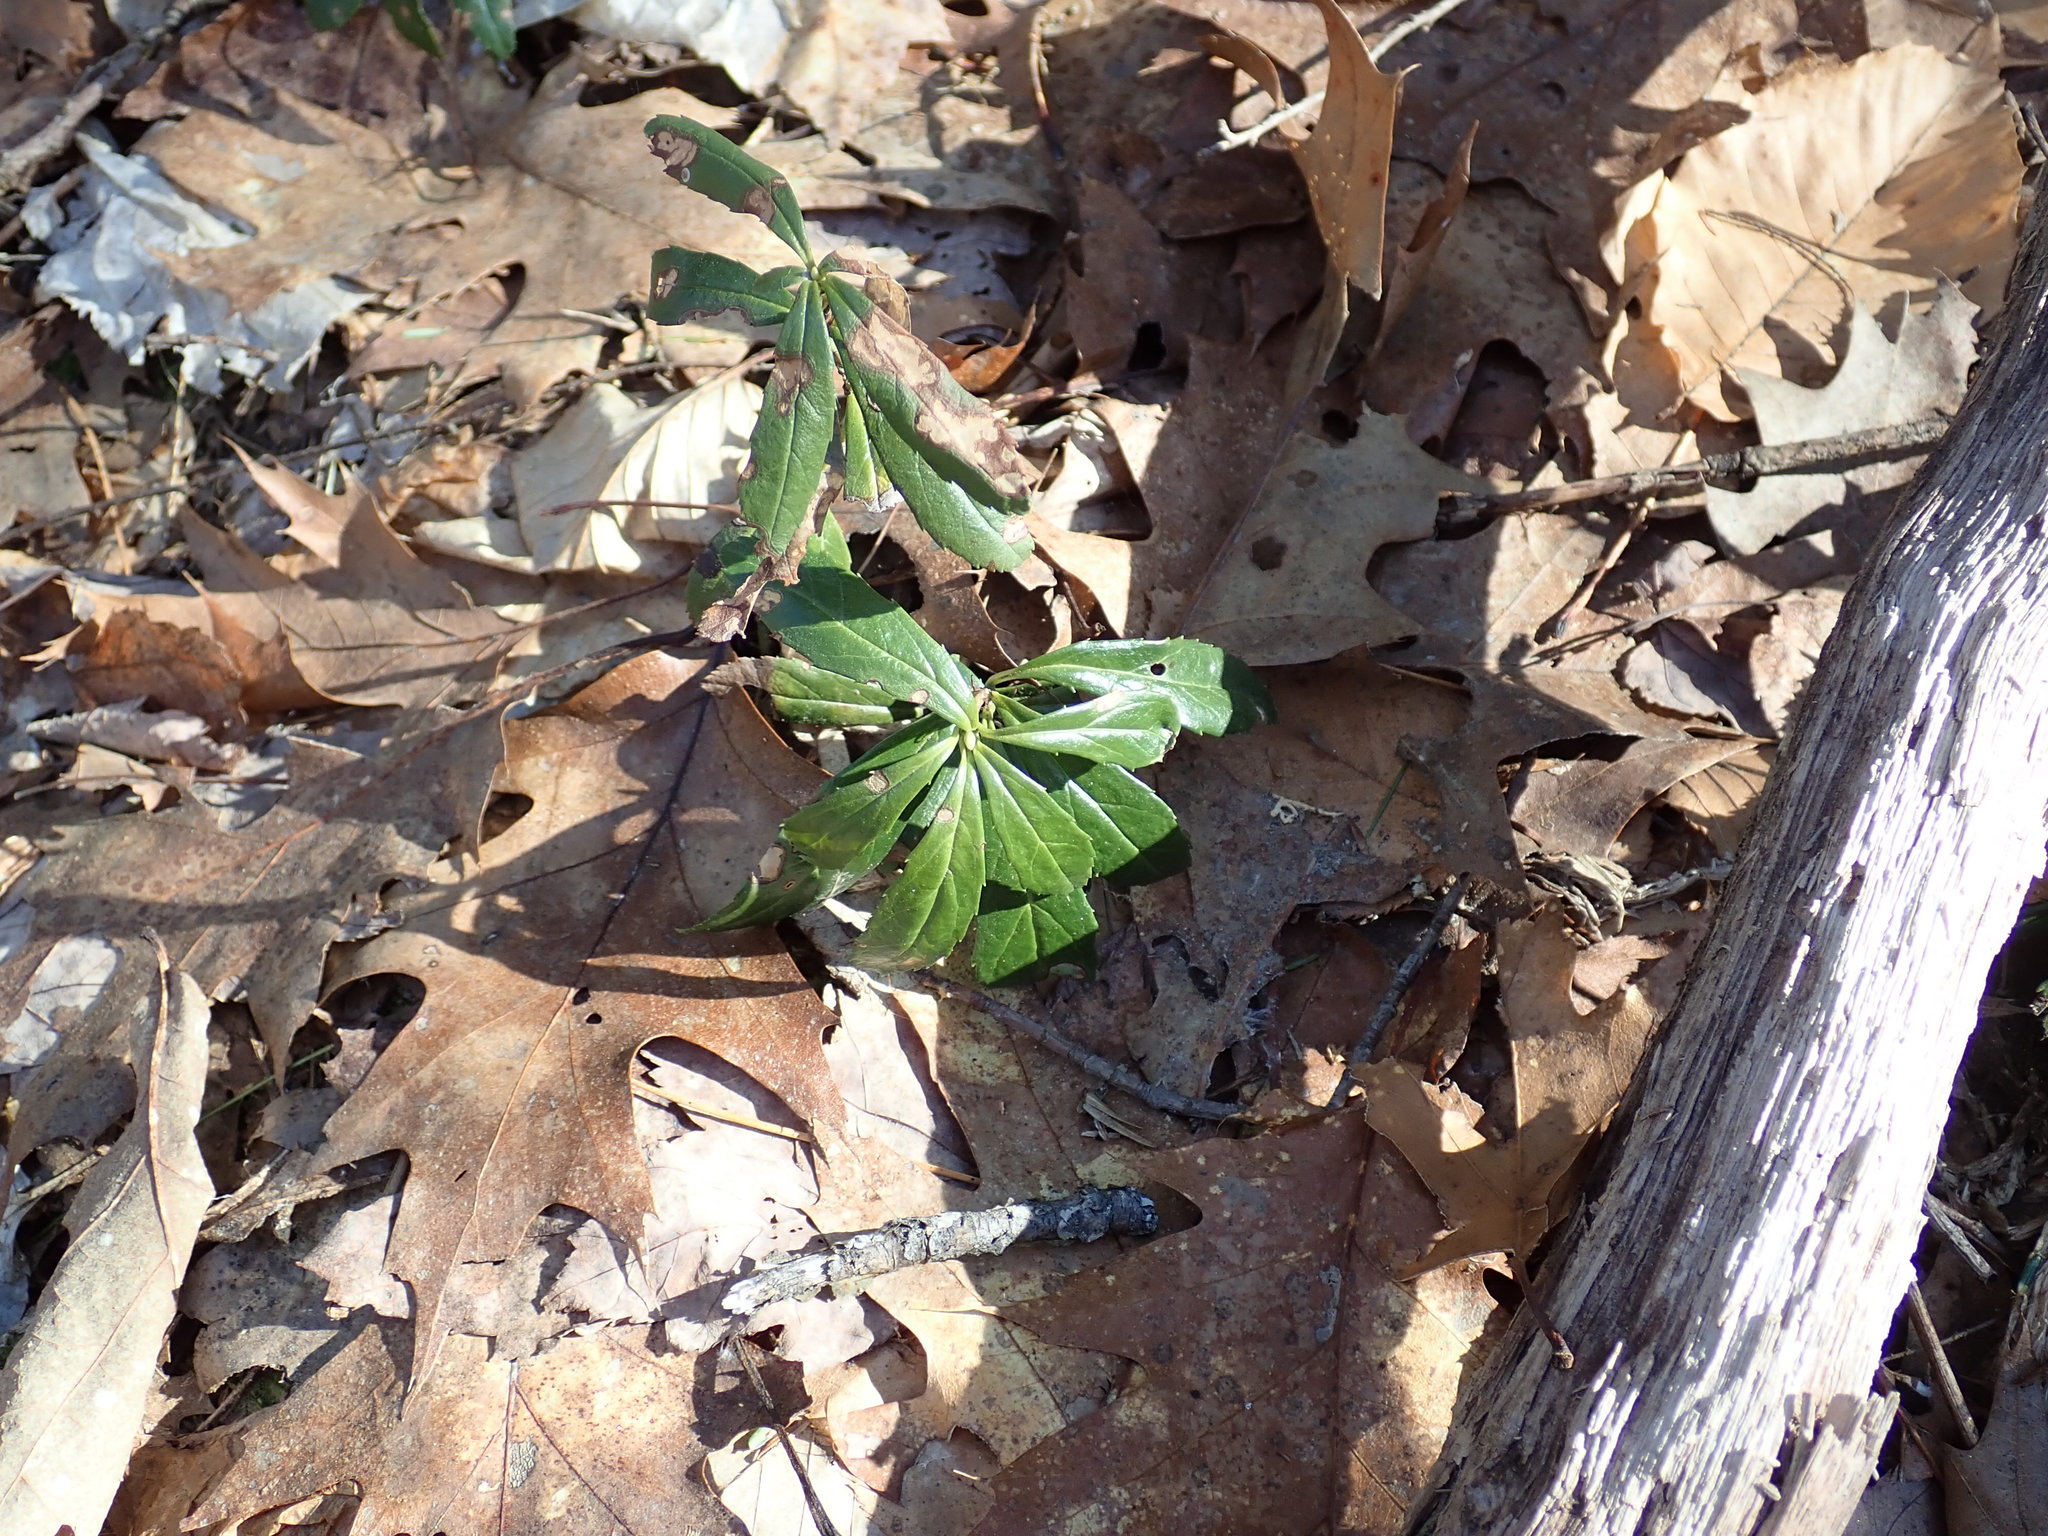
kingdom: Plantae
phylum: Tracheophyta
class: Magnoliopsida
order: Ericales
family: Ericaceae
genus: Chimaphila
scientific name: Chimaphila umbellata
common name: Pipsissewa
